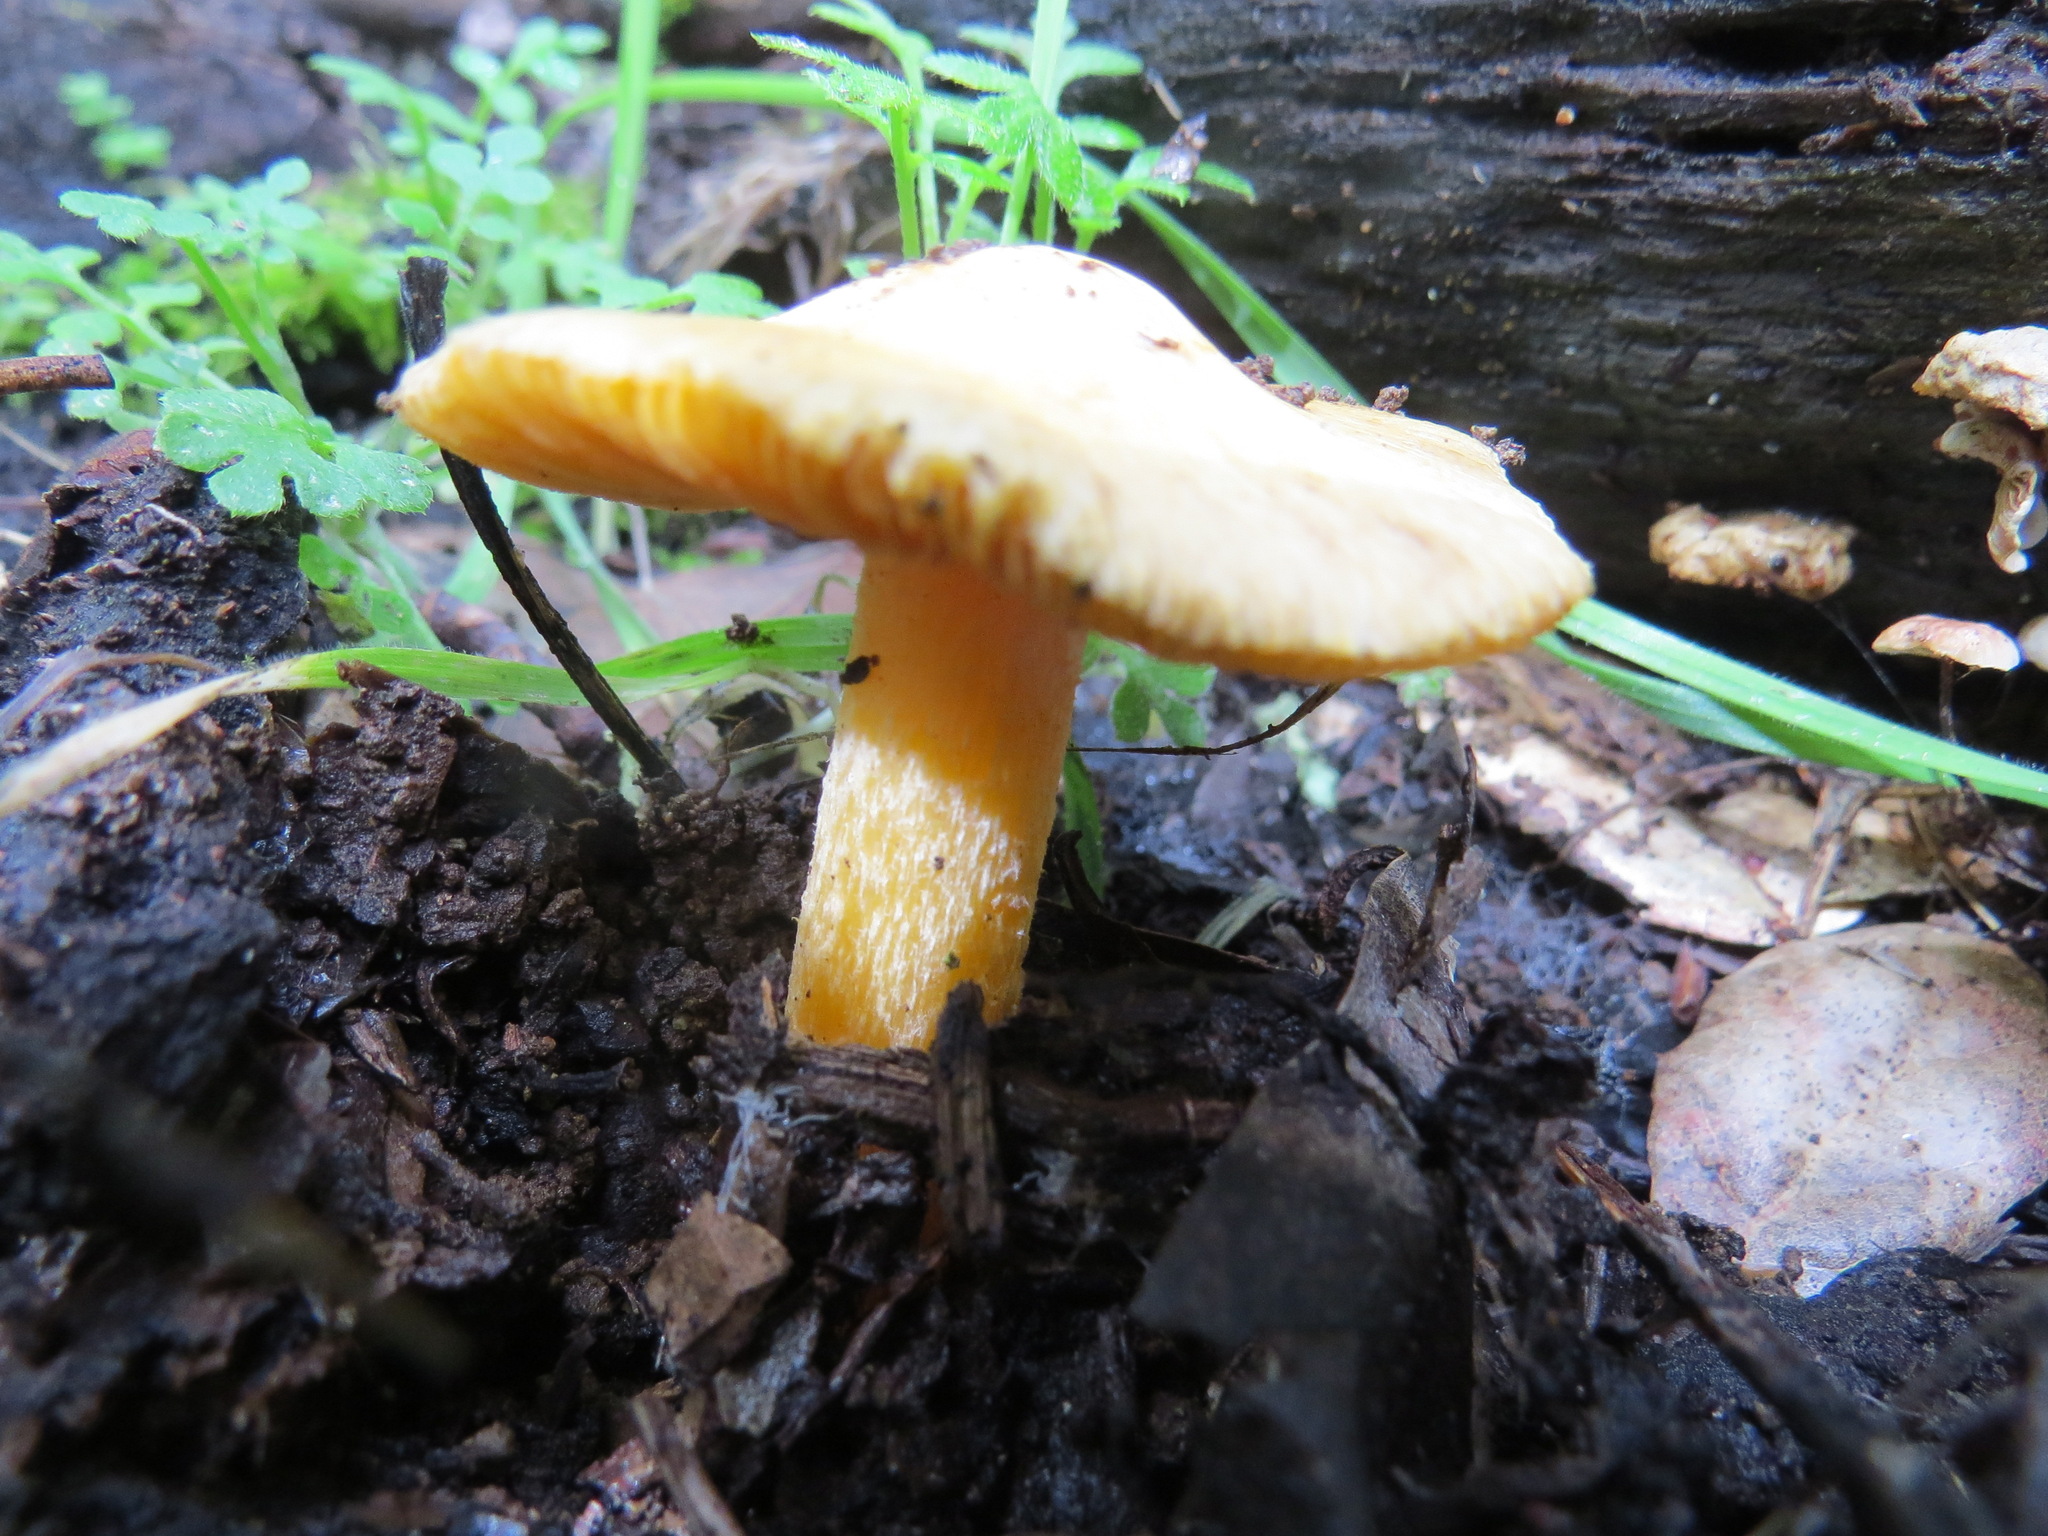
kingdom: Fungi
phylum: Basidiomycota
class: Agaricomycetes
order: Agaricales
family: Inocybaceae
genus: Pseudosperma
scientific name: Pseudosperma sororium
